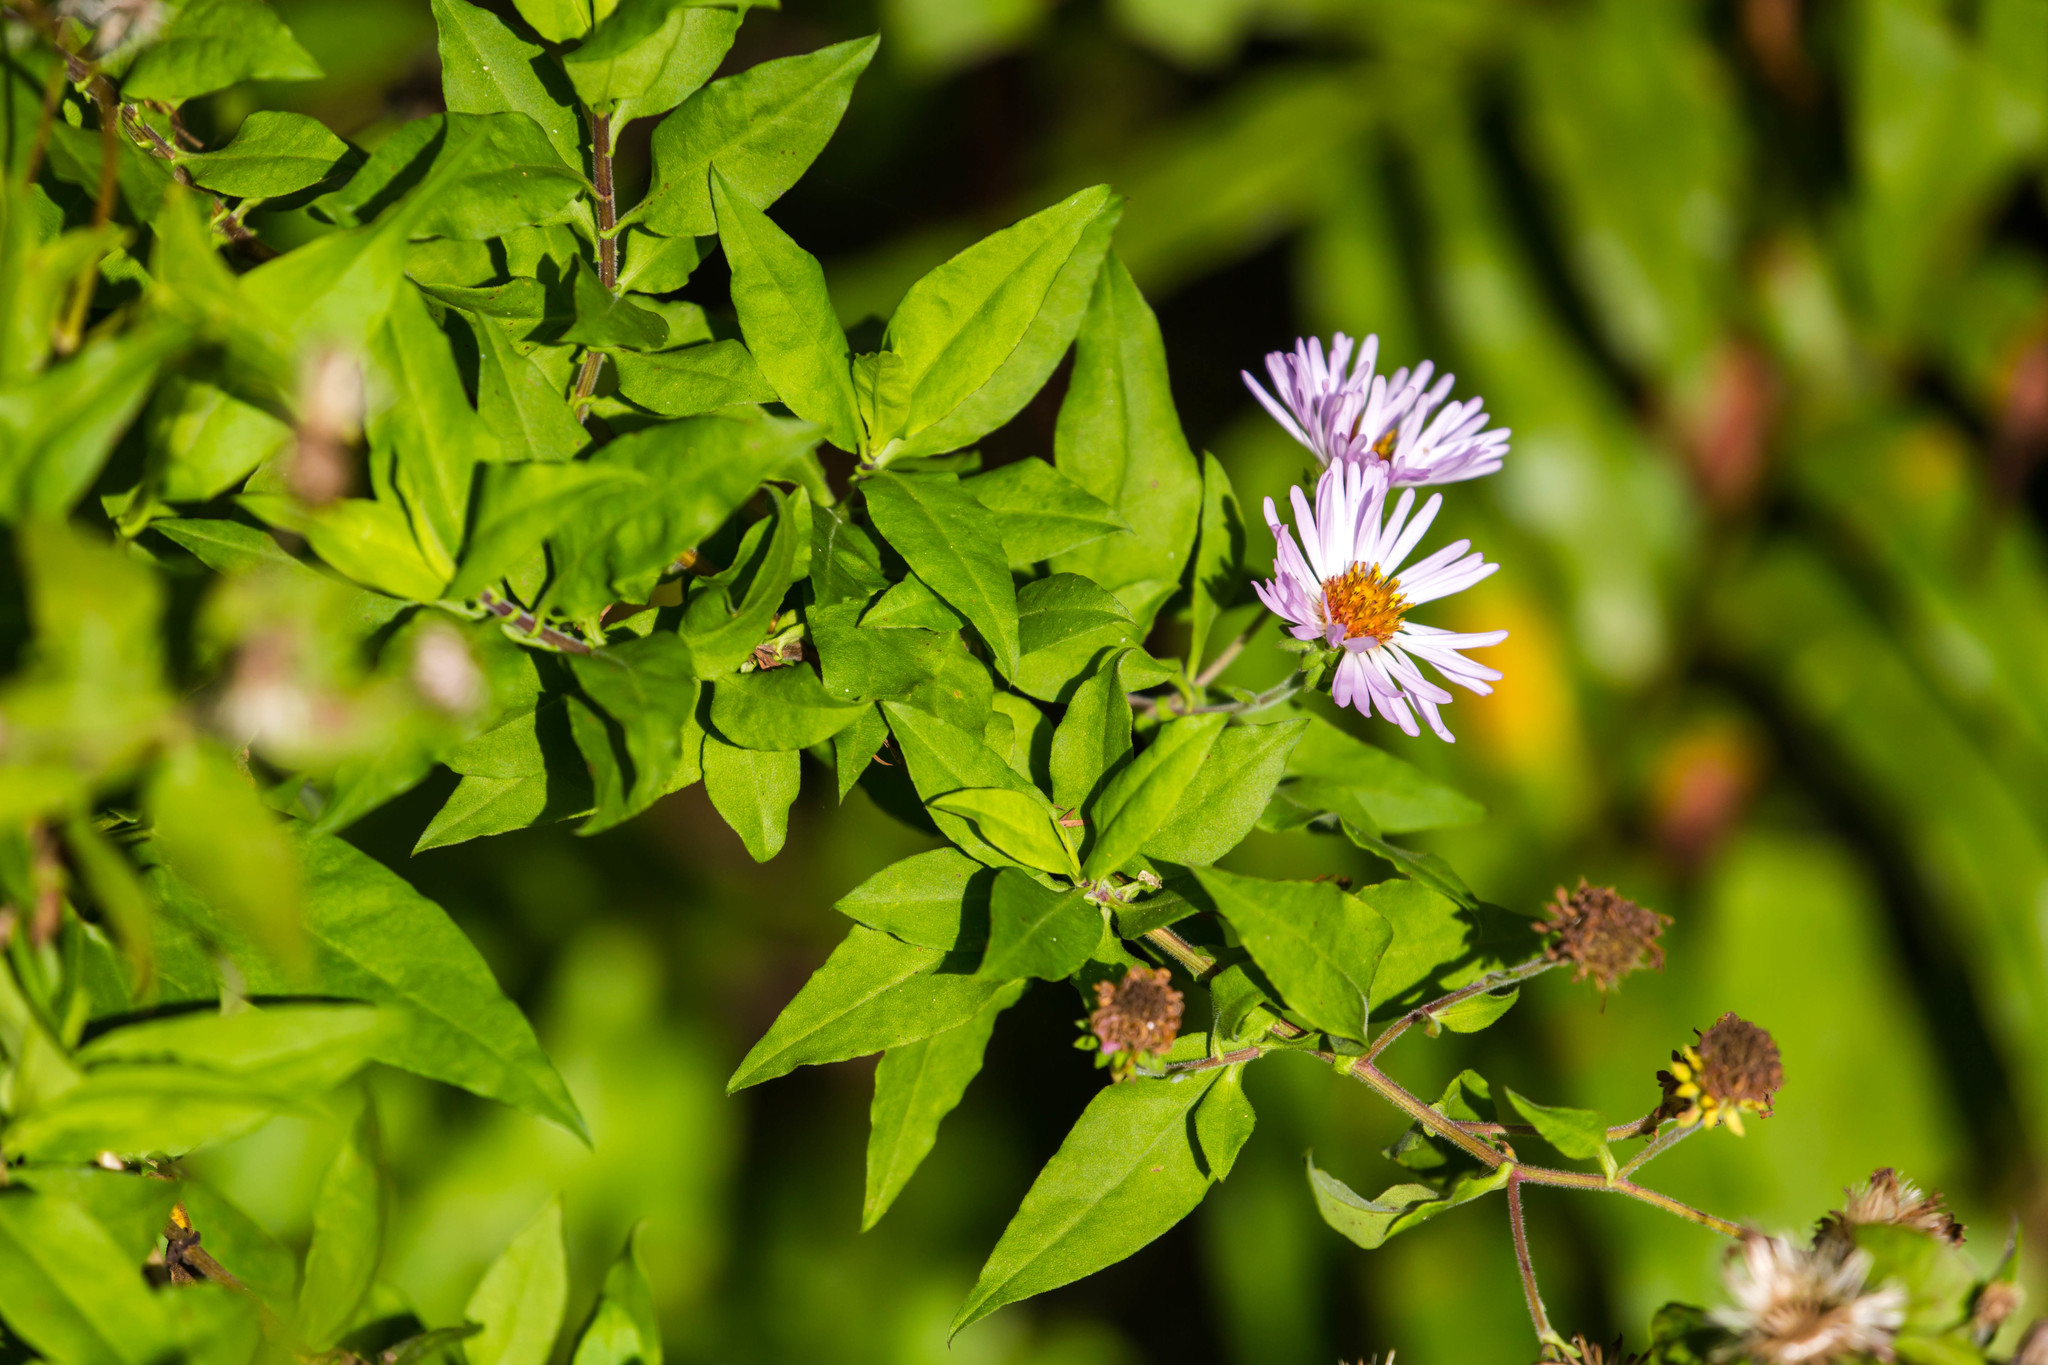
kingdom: Plantae
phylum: Tracheophyta
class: Magnoliopsida
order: Asterales
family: Asteraceae
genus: Ampelaster
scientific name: Ampelaster carolinianus
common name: Climbing aster
